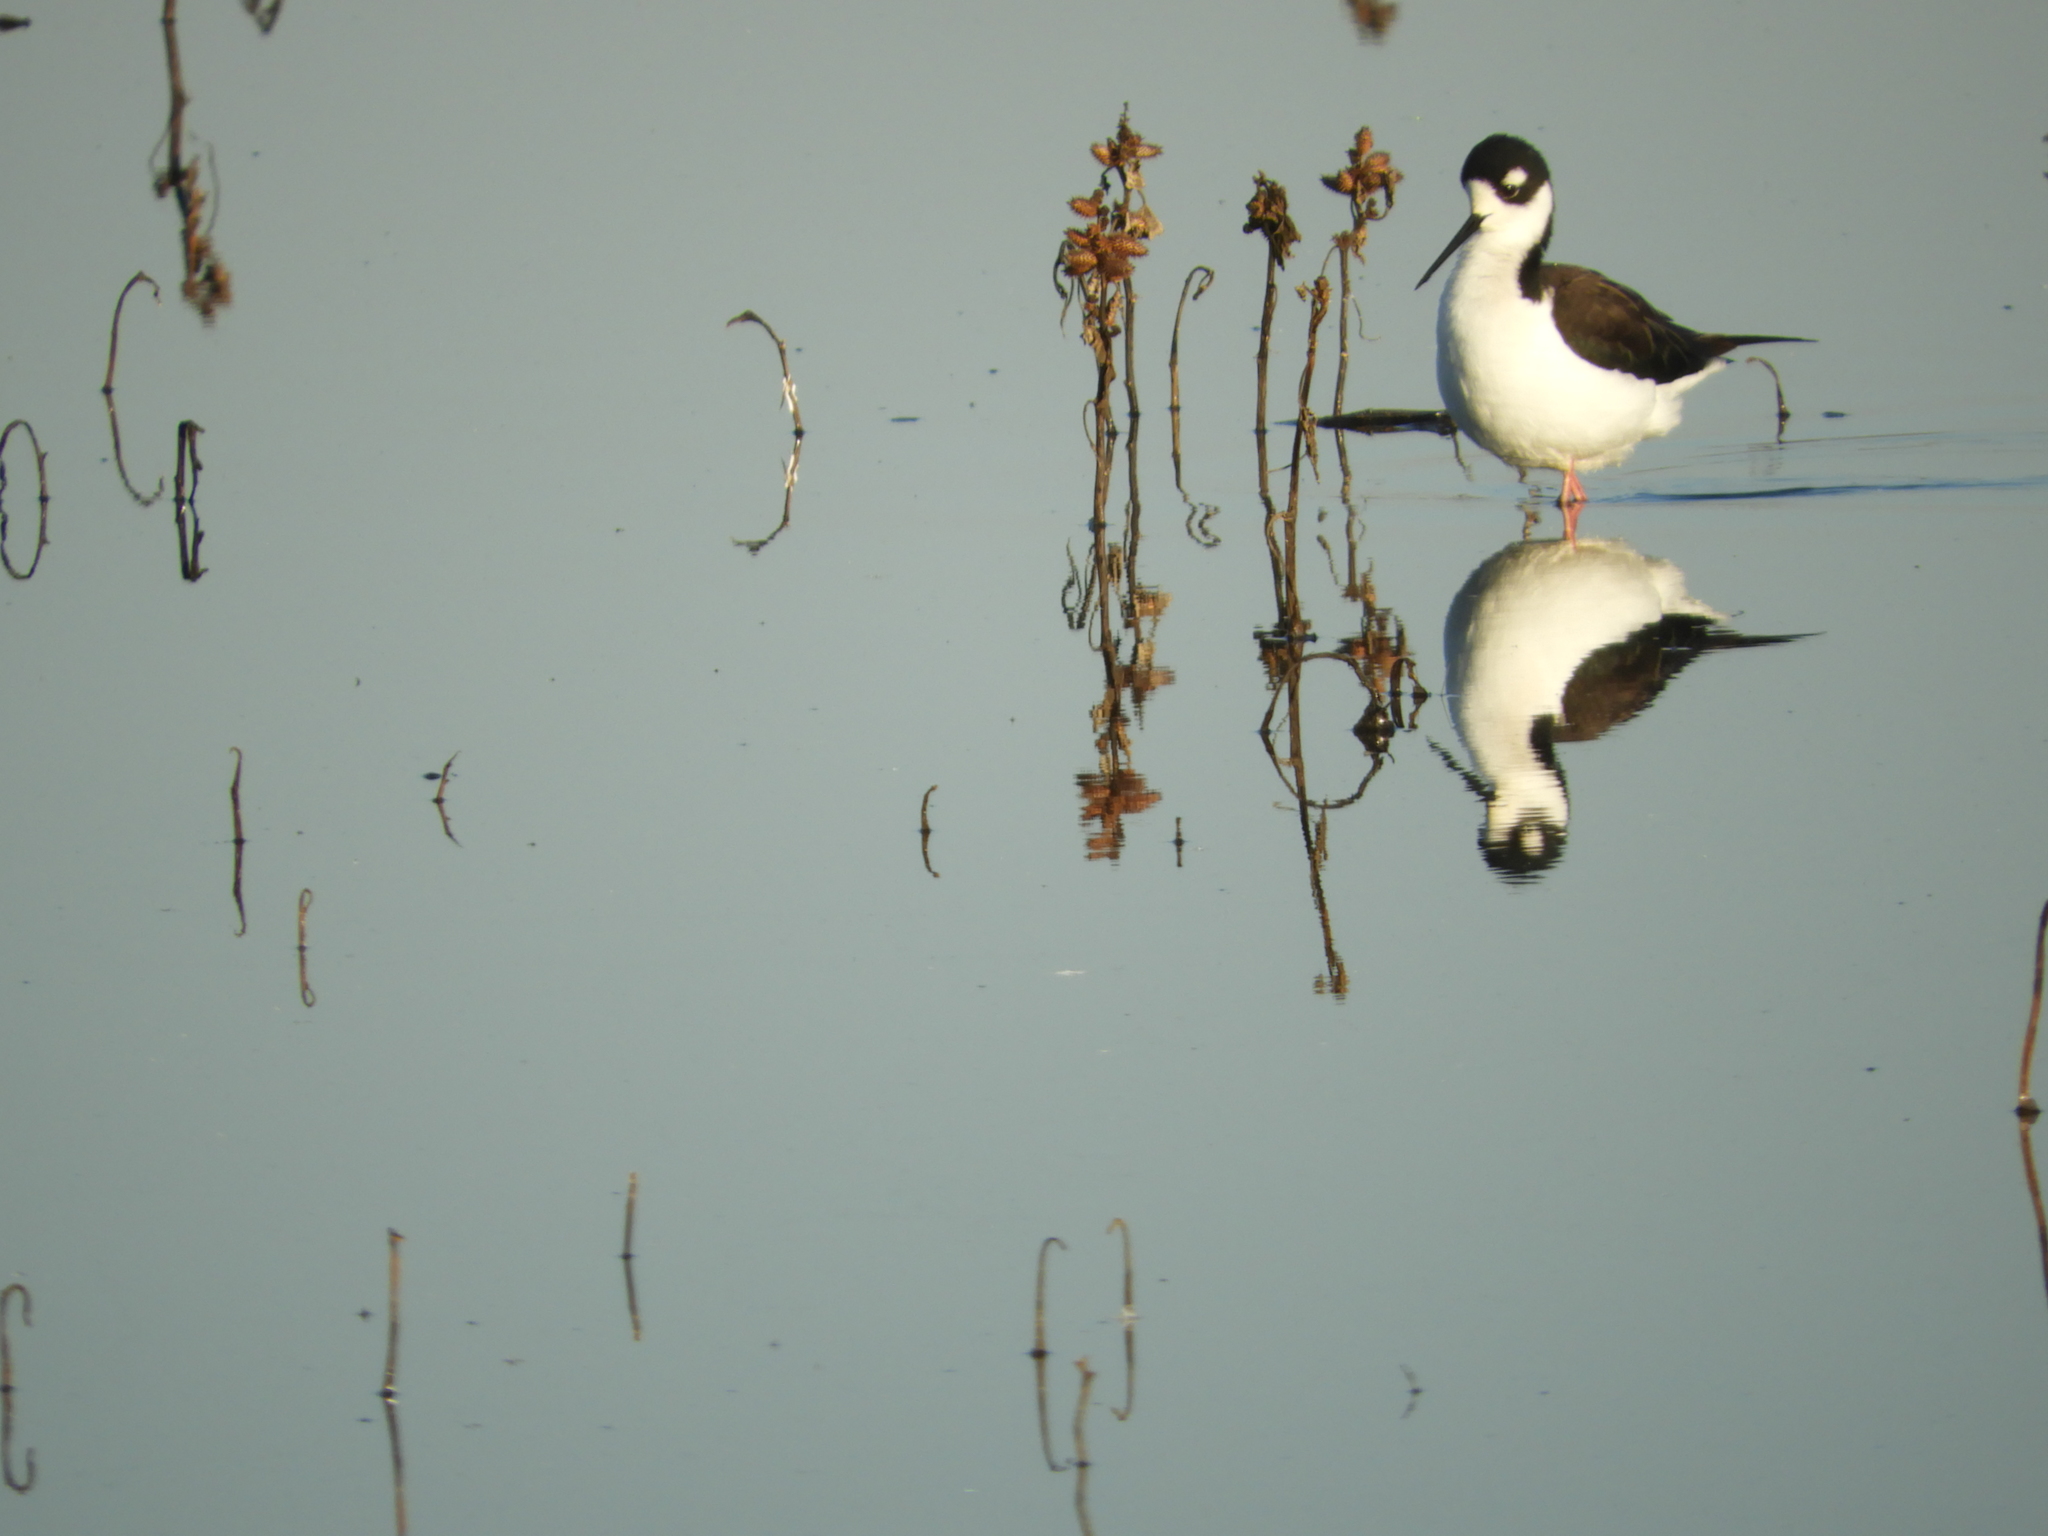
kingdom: Animalia
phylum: Chordata
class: Aves
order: Charadriiformes
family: Recurvirostridae
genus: Himantopus
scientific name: Himantopus mexicanus
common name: Black-necked stilt
